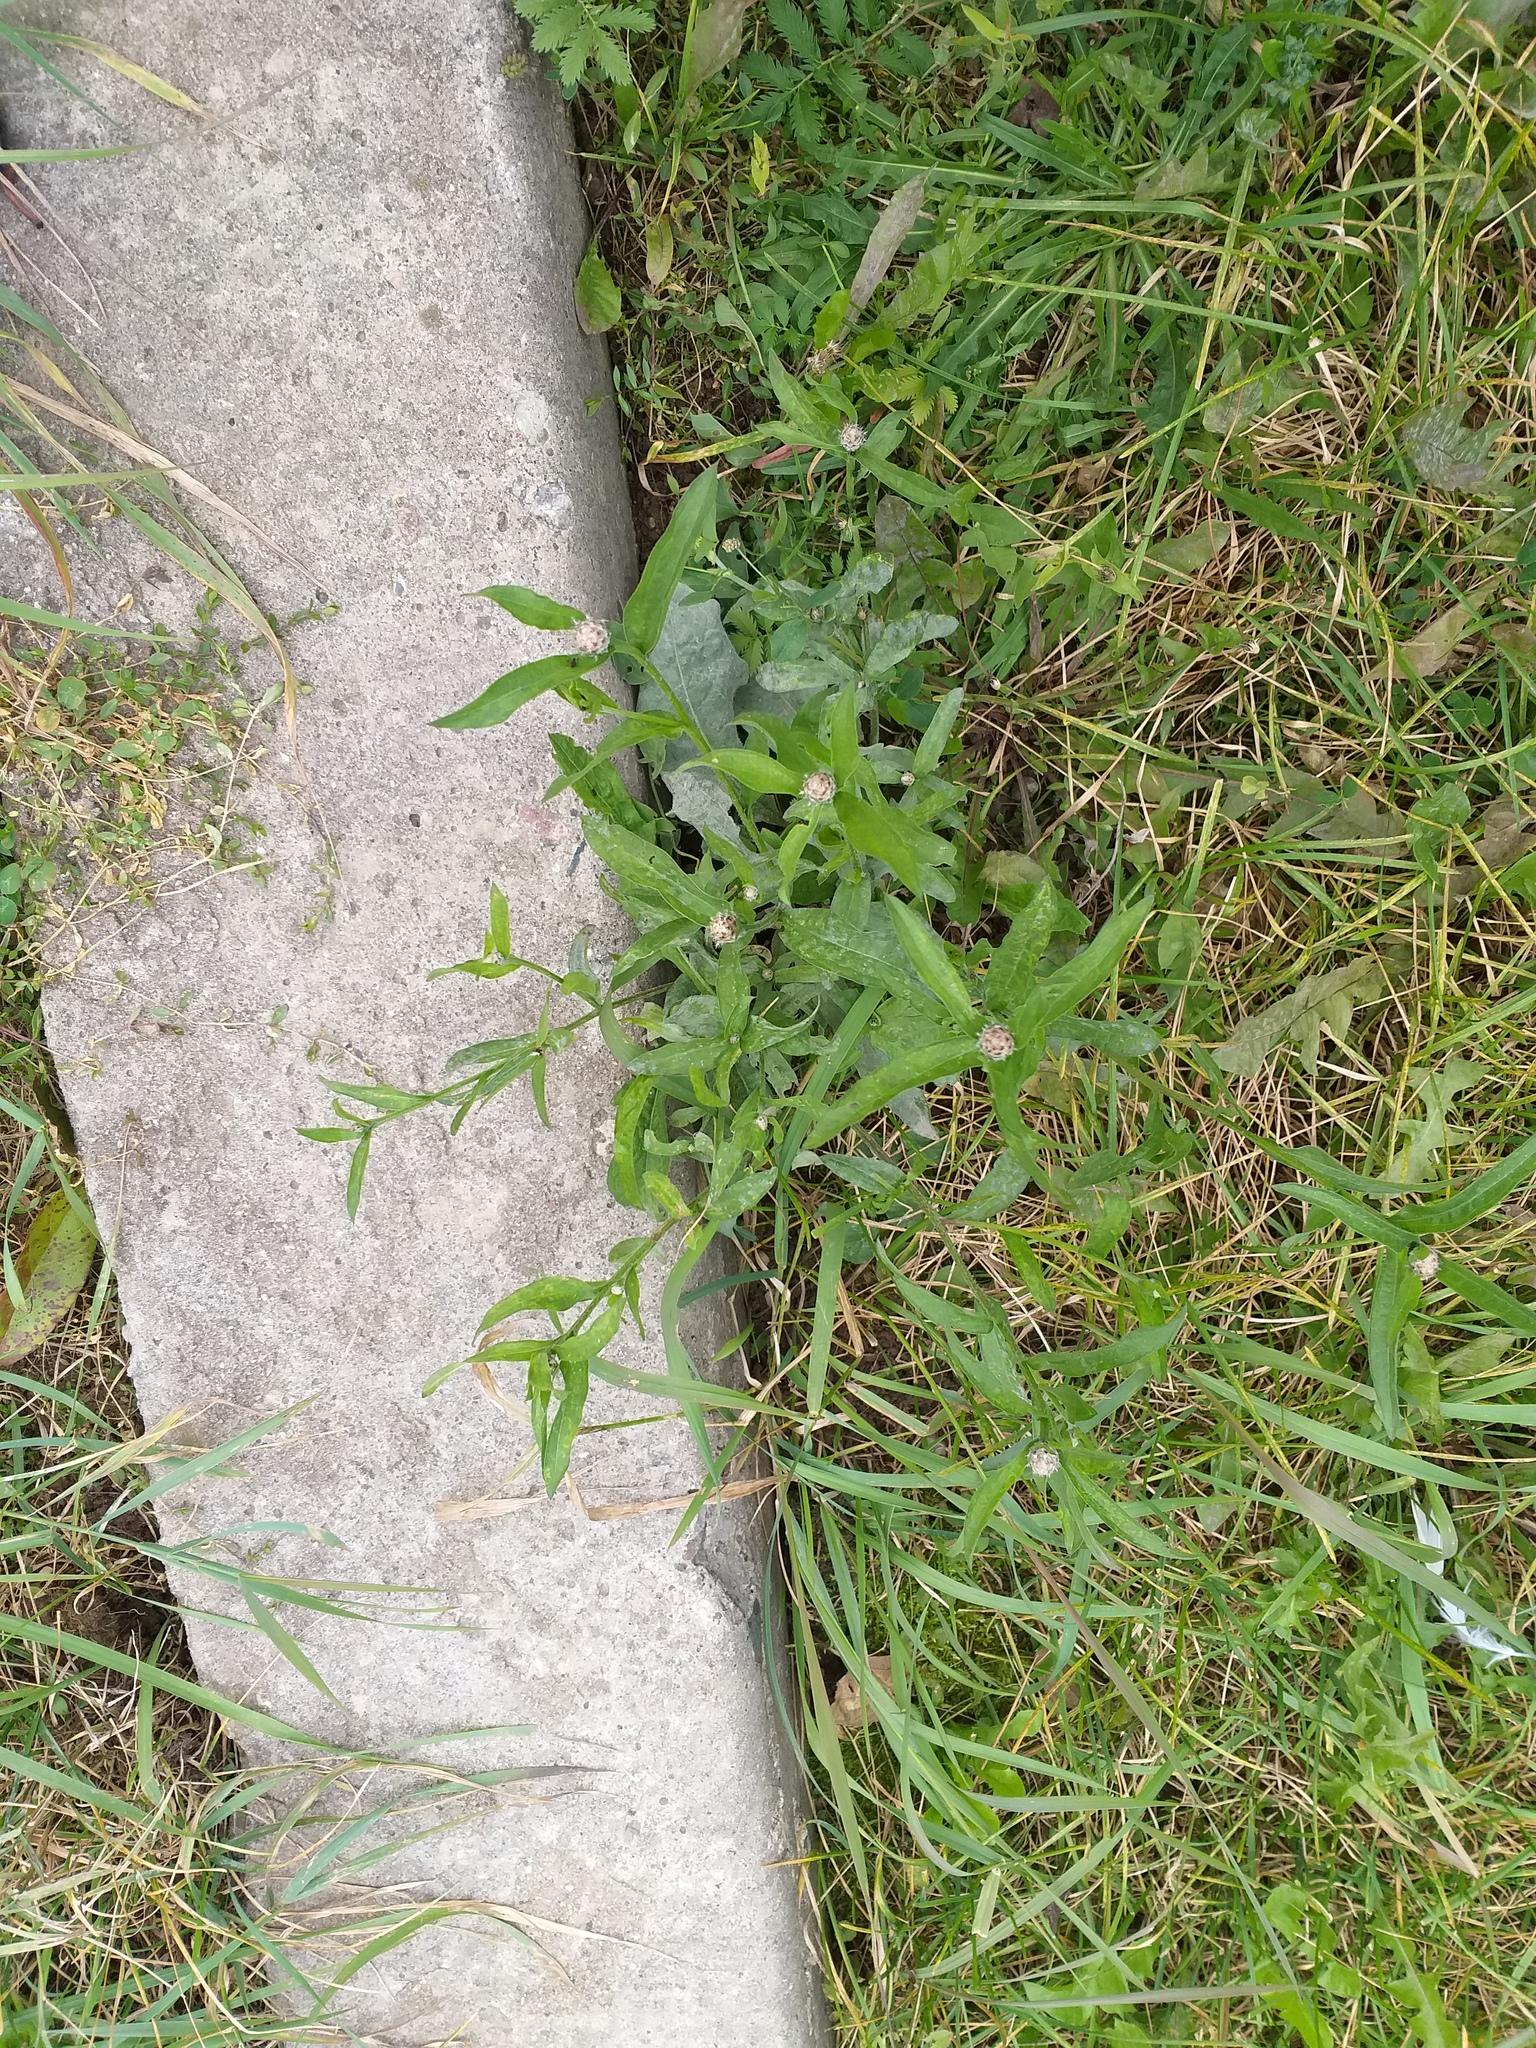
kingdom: Plantae
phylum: Tracheophyta
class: Magnoliopsida
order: Asterales
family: Asteraceae
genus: Centaurea
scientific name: Centaurea livonica
